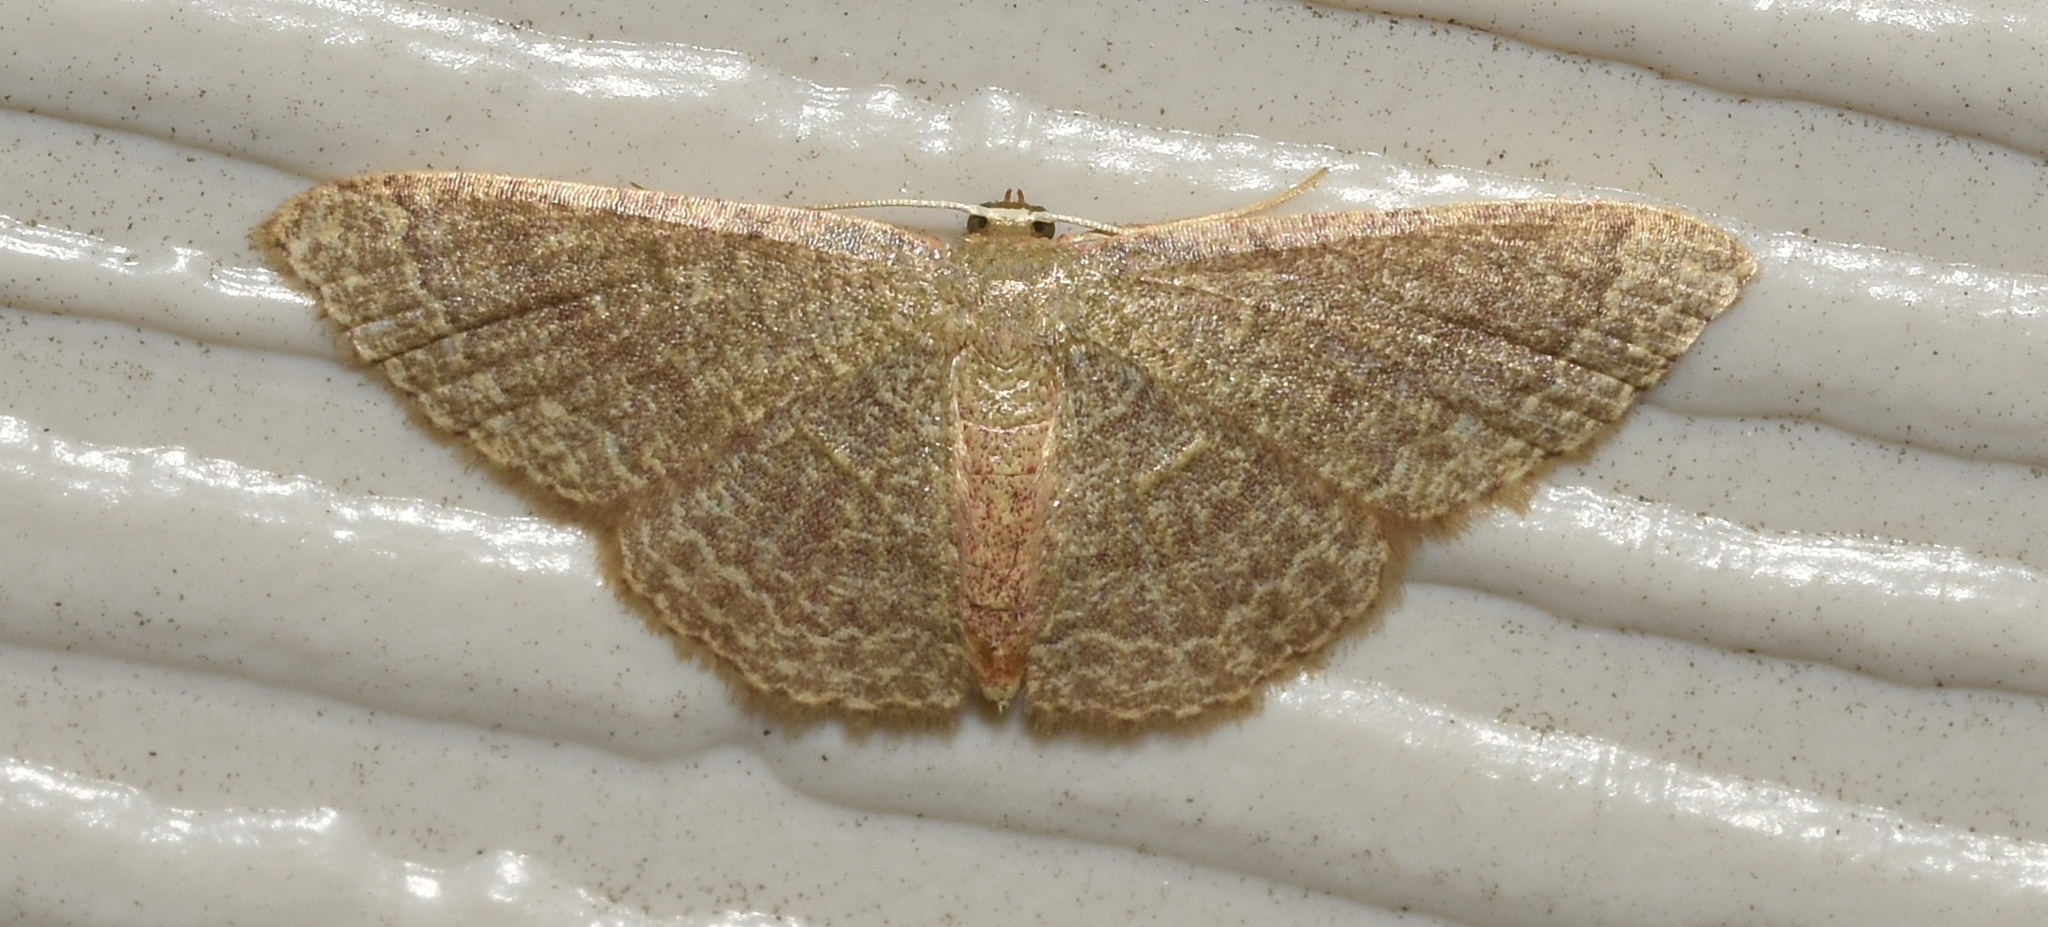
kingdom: Animalia
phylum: Arthropoda
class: Insecta
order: Lepidoptera
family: Geometridae
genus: Pleuroprucha
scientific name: Pleuroprucha insulsaria
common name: Common tan wave
